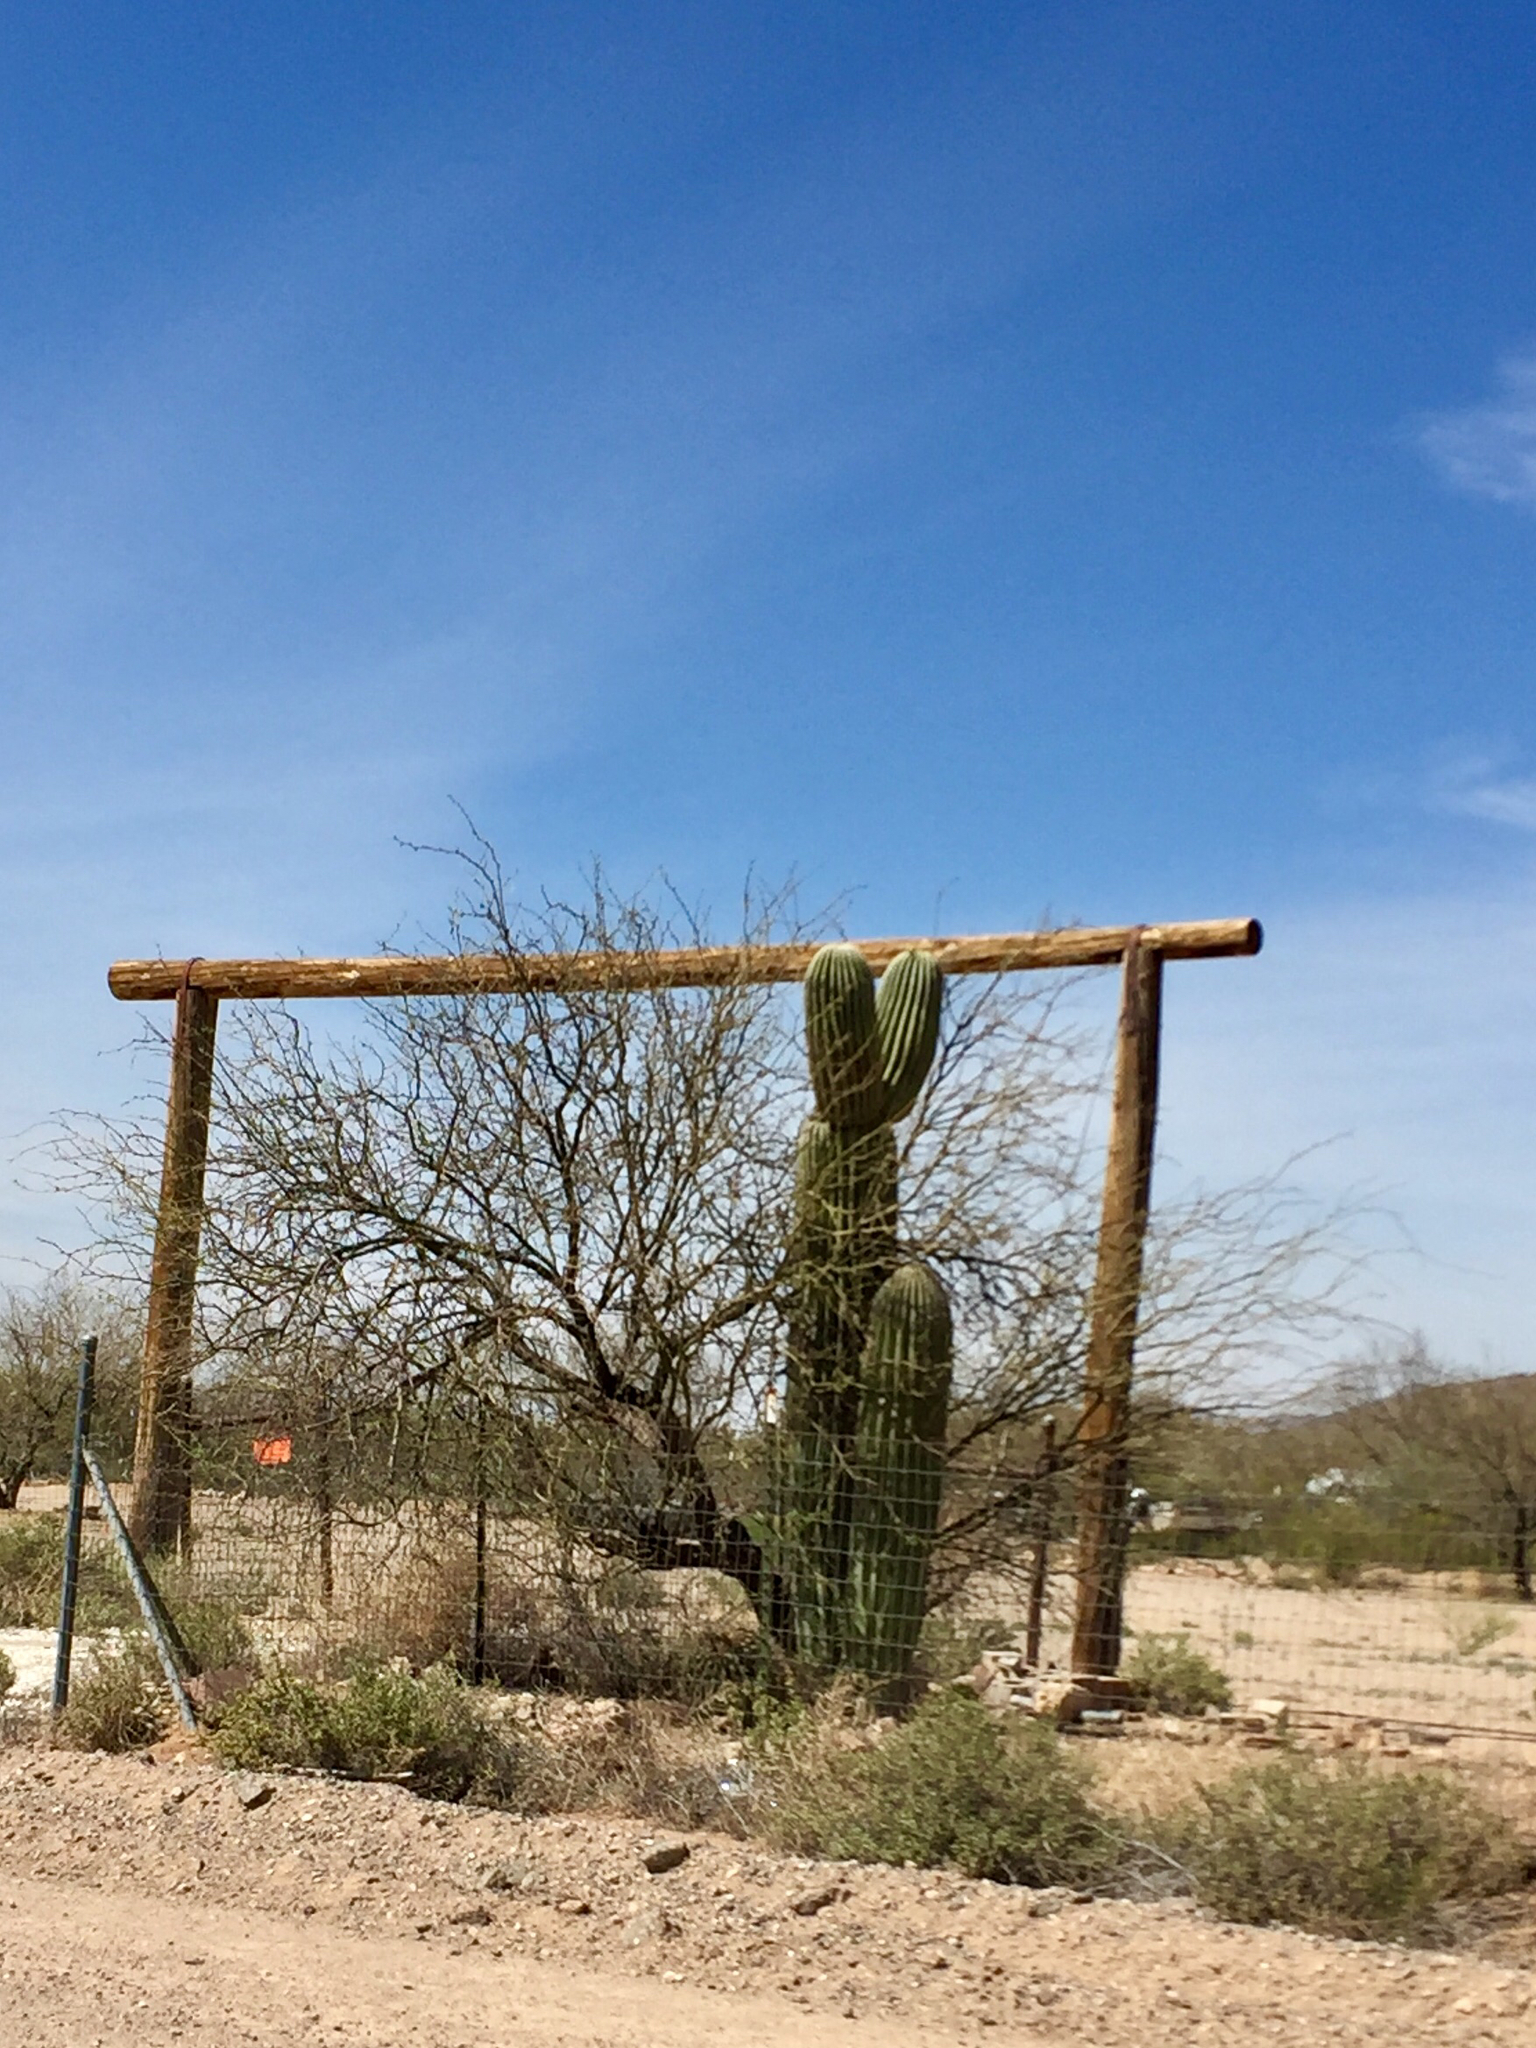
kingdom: Plantae
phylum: Tracheophyta
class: Magnoliopsida
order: Caryophyllales
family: Cactaceae
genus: Carnegiea
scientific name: Carnegiea gigantea
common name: Saguaro
